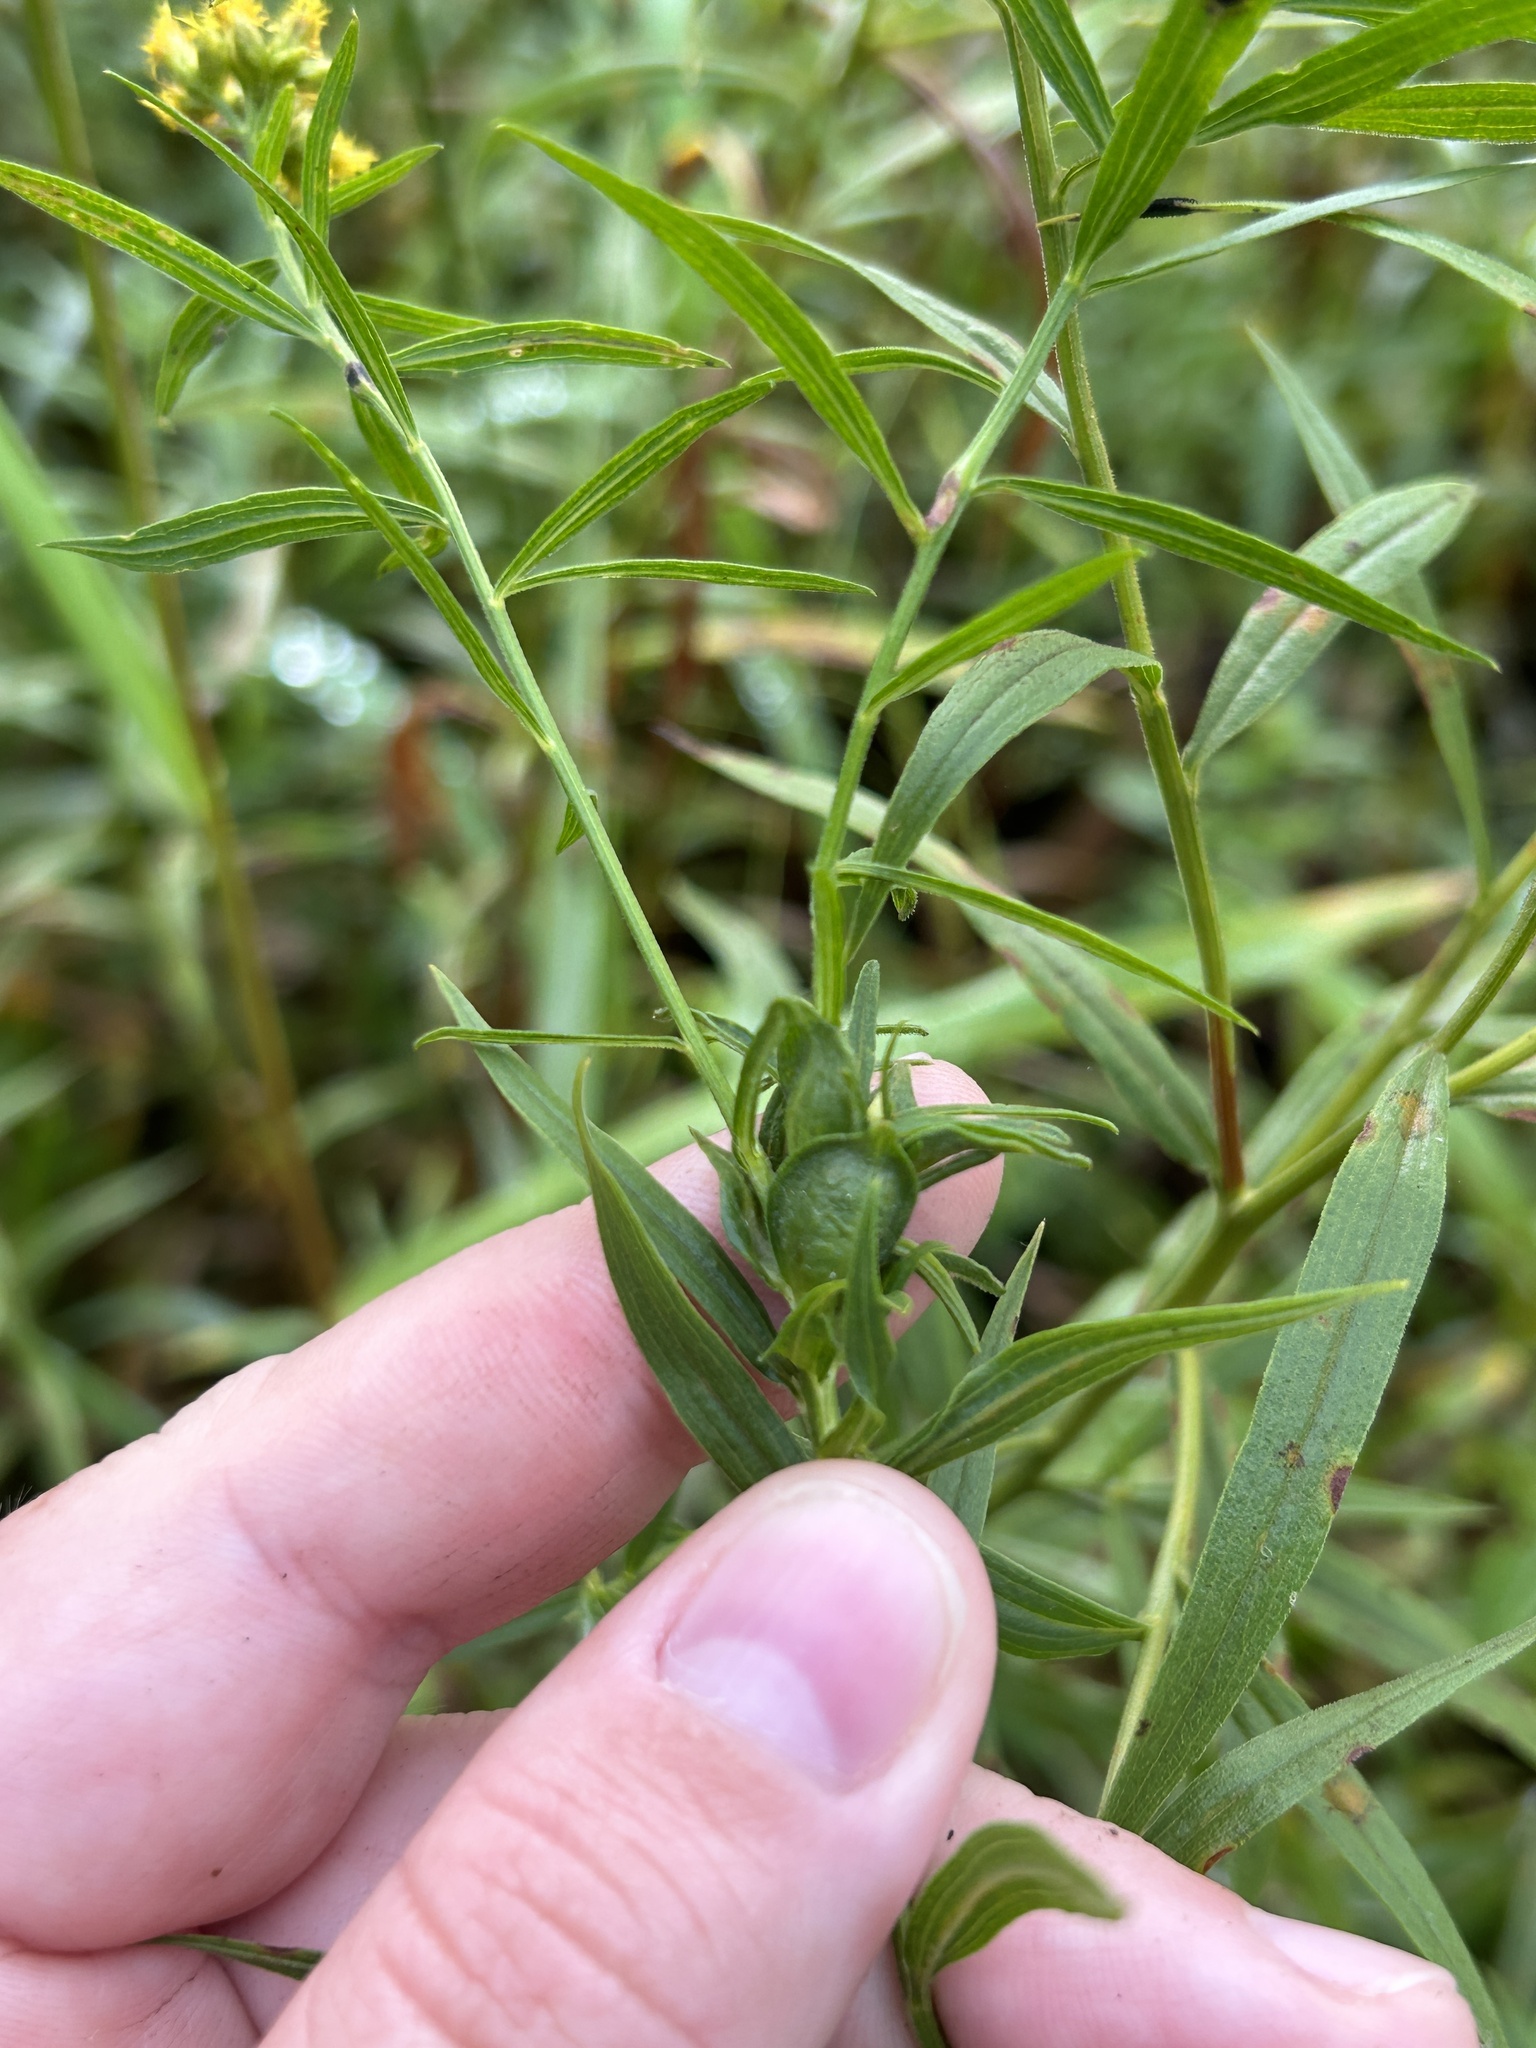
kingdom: Animalia
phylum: Arthropoda
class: Insecta
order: Diptera
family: Cecidomyiidae
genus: Asphondylia
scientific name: Asphondylia pseudorosa
